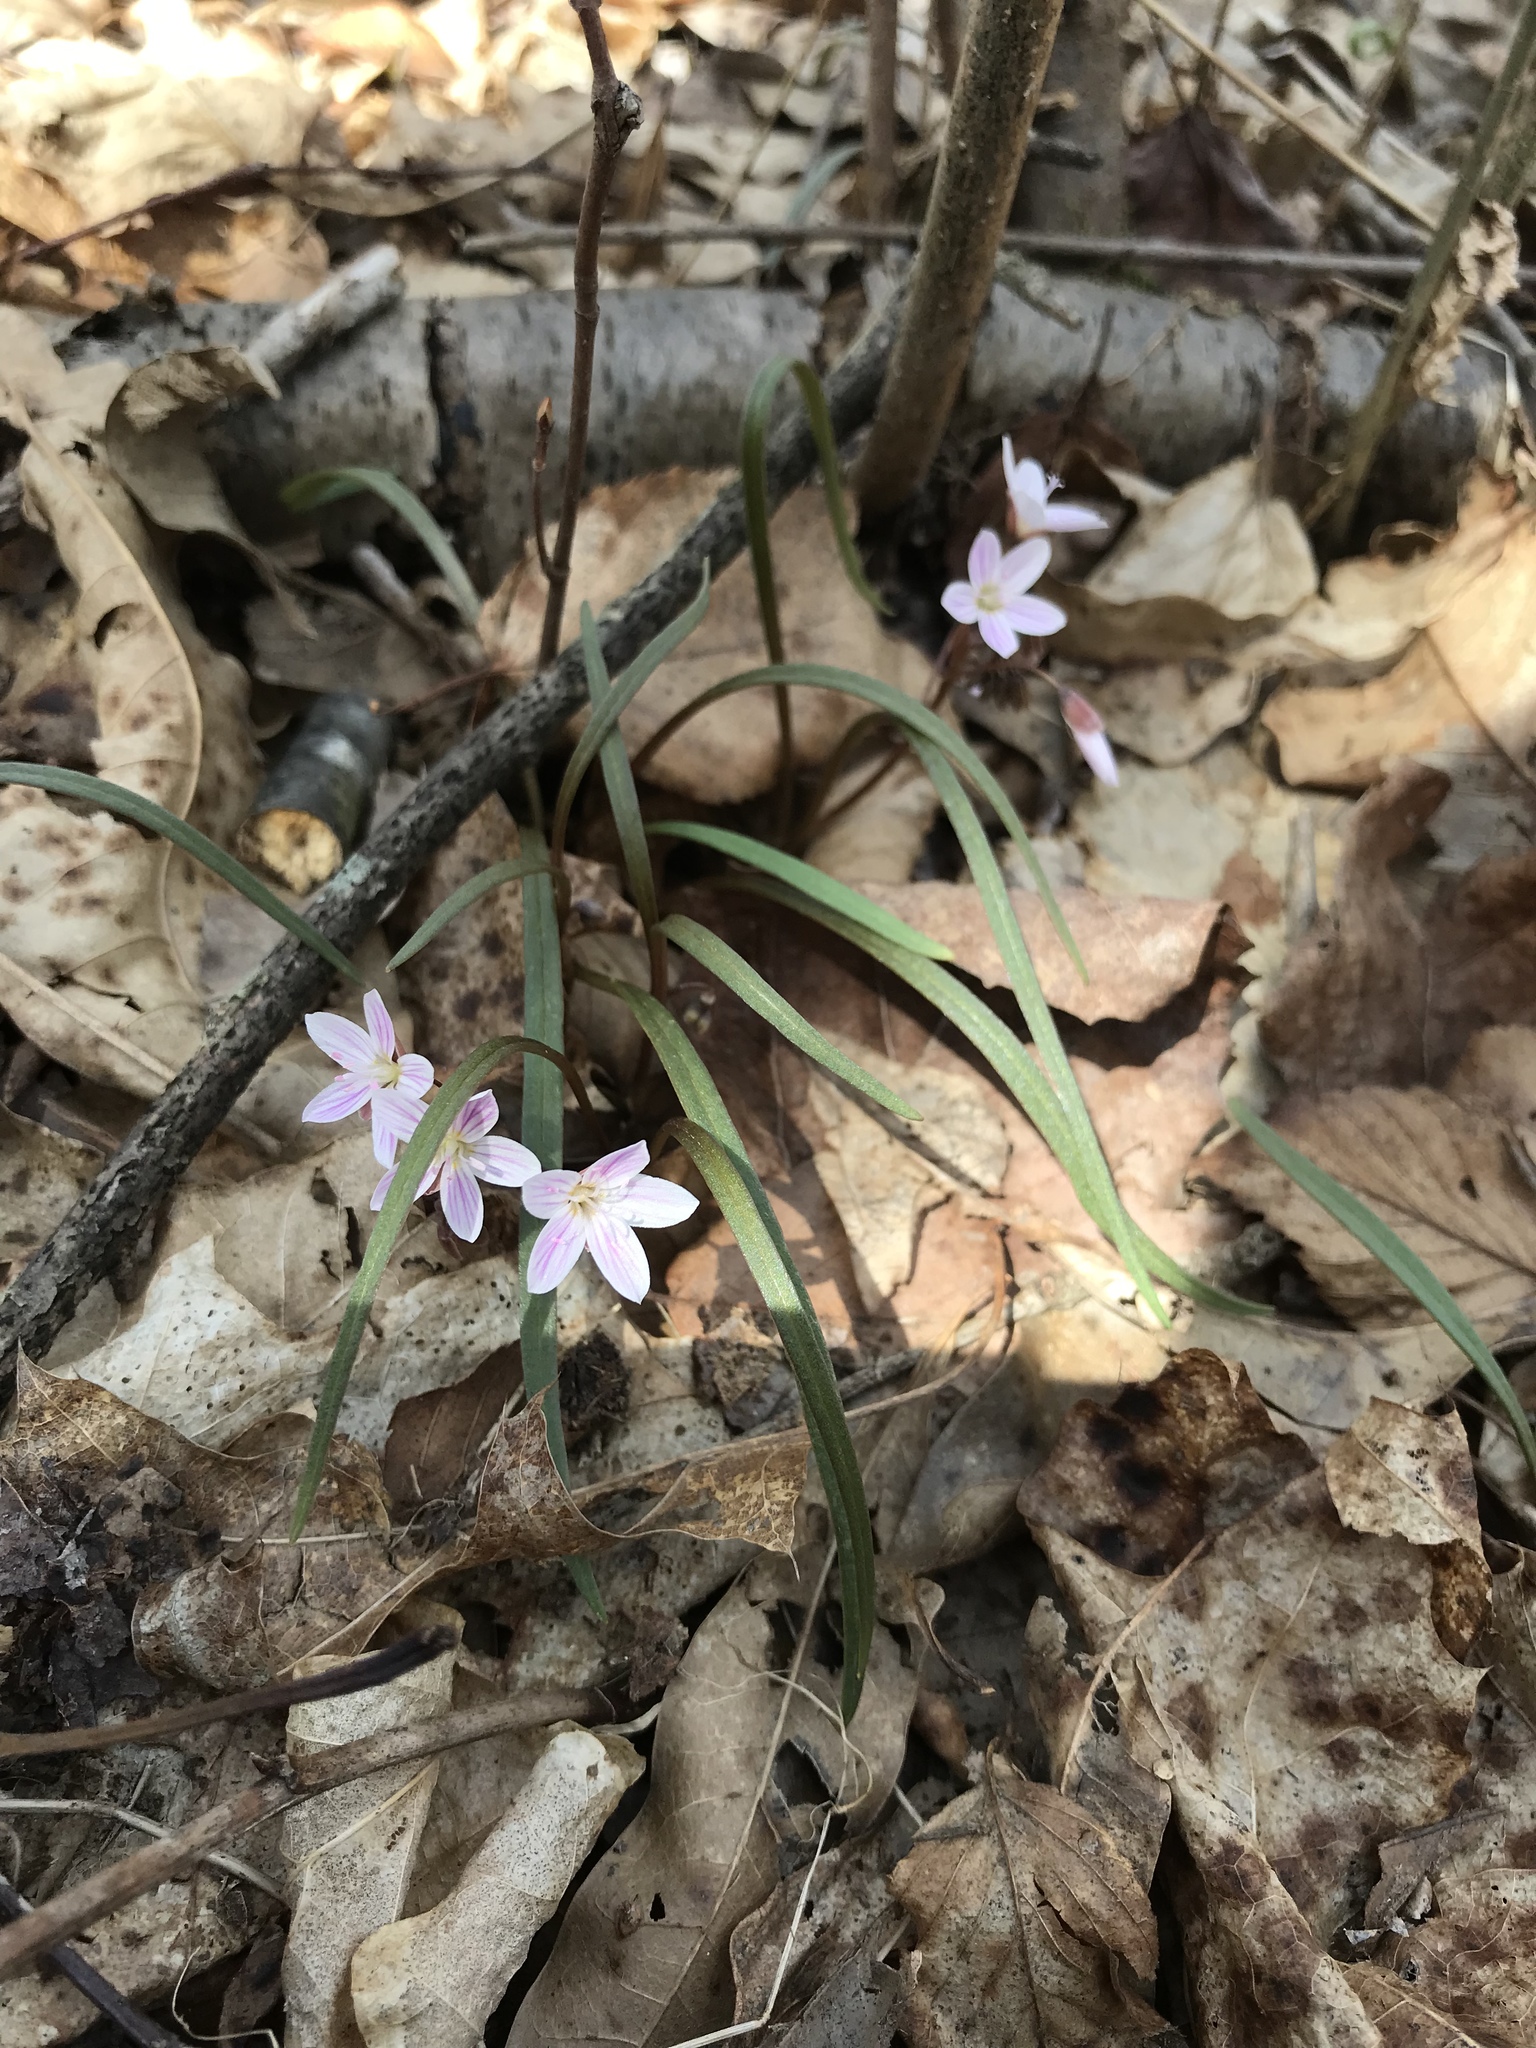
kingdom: Plantae
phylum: Tracheophyta
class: Magnoliopsida
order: Caryophyllales
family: Montiaceae
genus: Claytonia
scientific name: Claytonia virginica
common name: Virginia springbeauty
